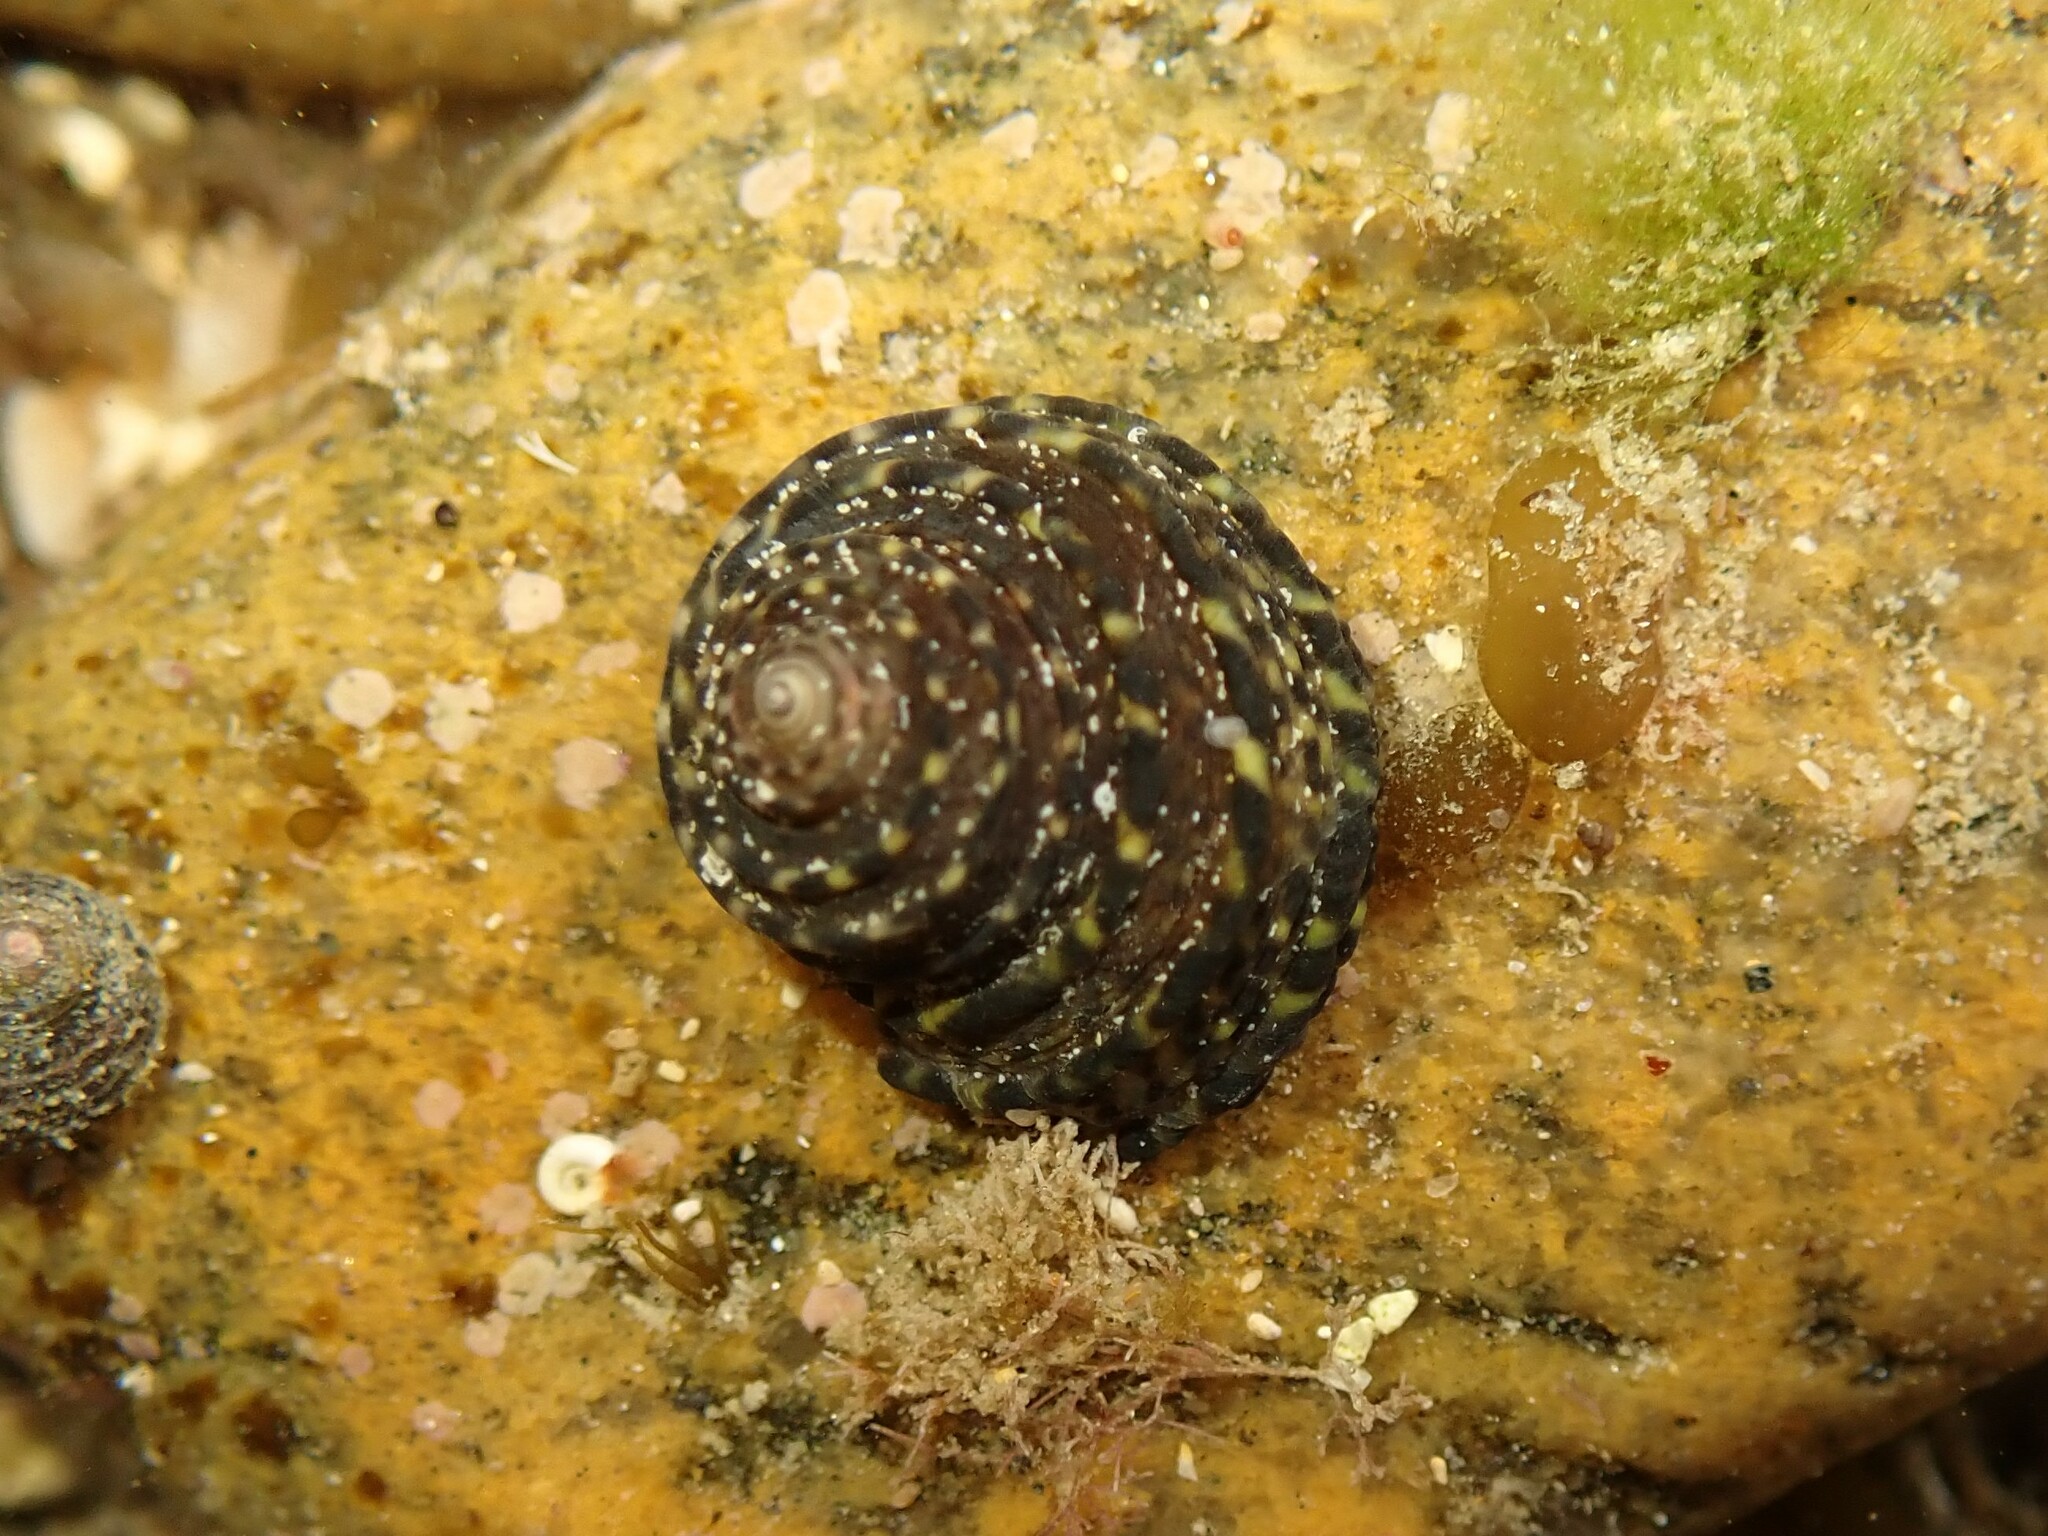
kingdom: Animalia
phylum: Mollusca
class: Gastropoda
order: Trochida
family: Trochidae
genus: Diloma
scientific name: Diloma bicanaliculatum
